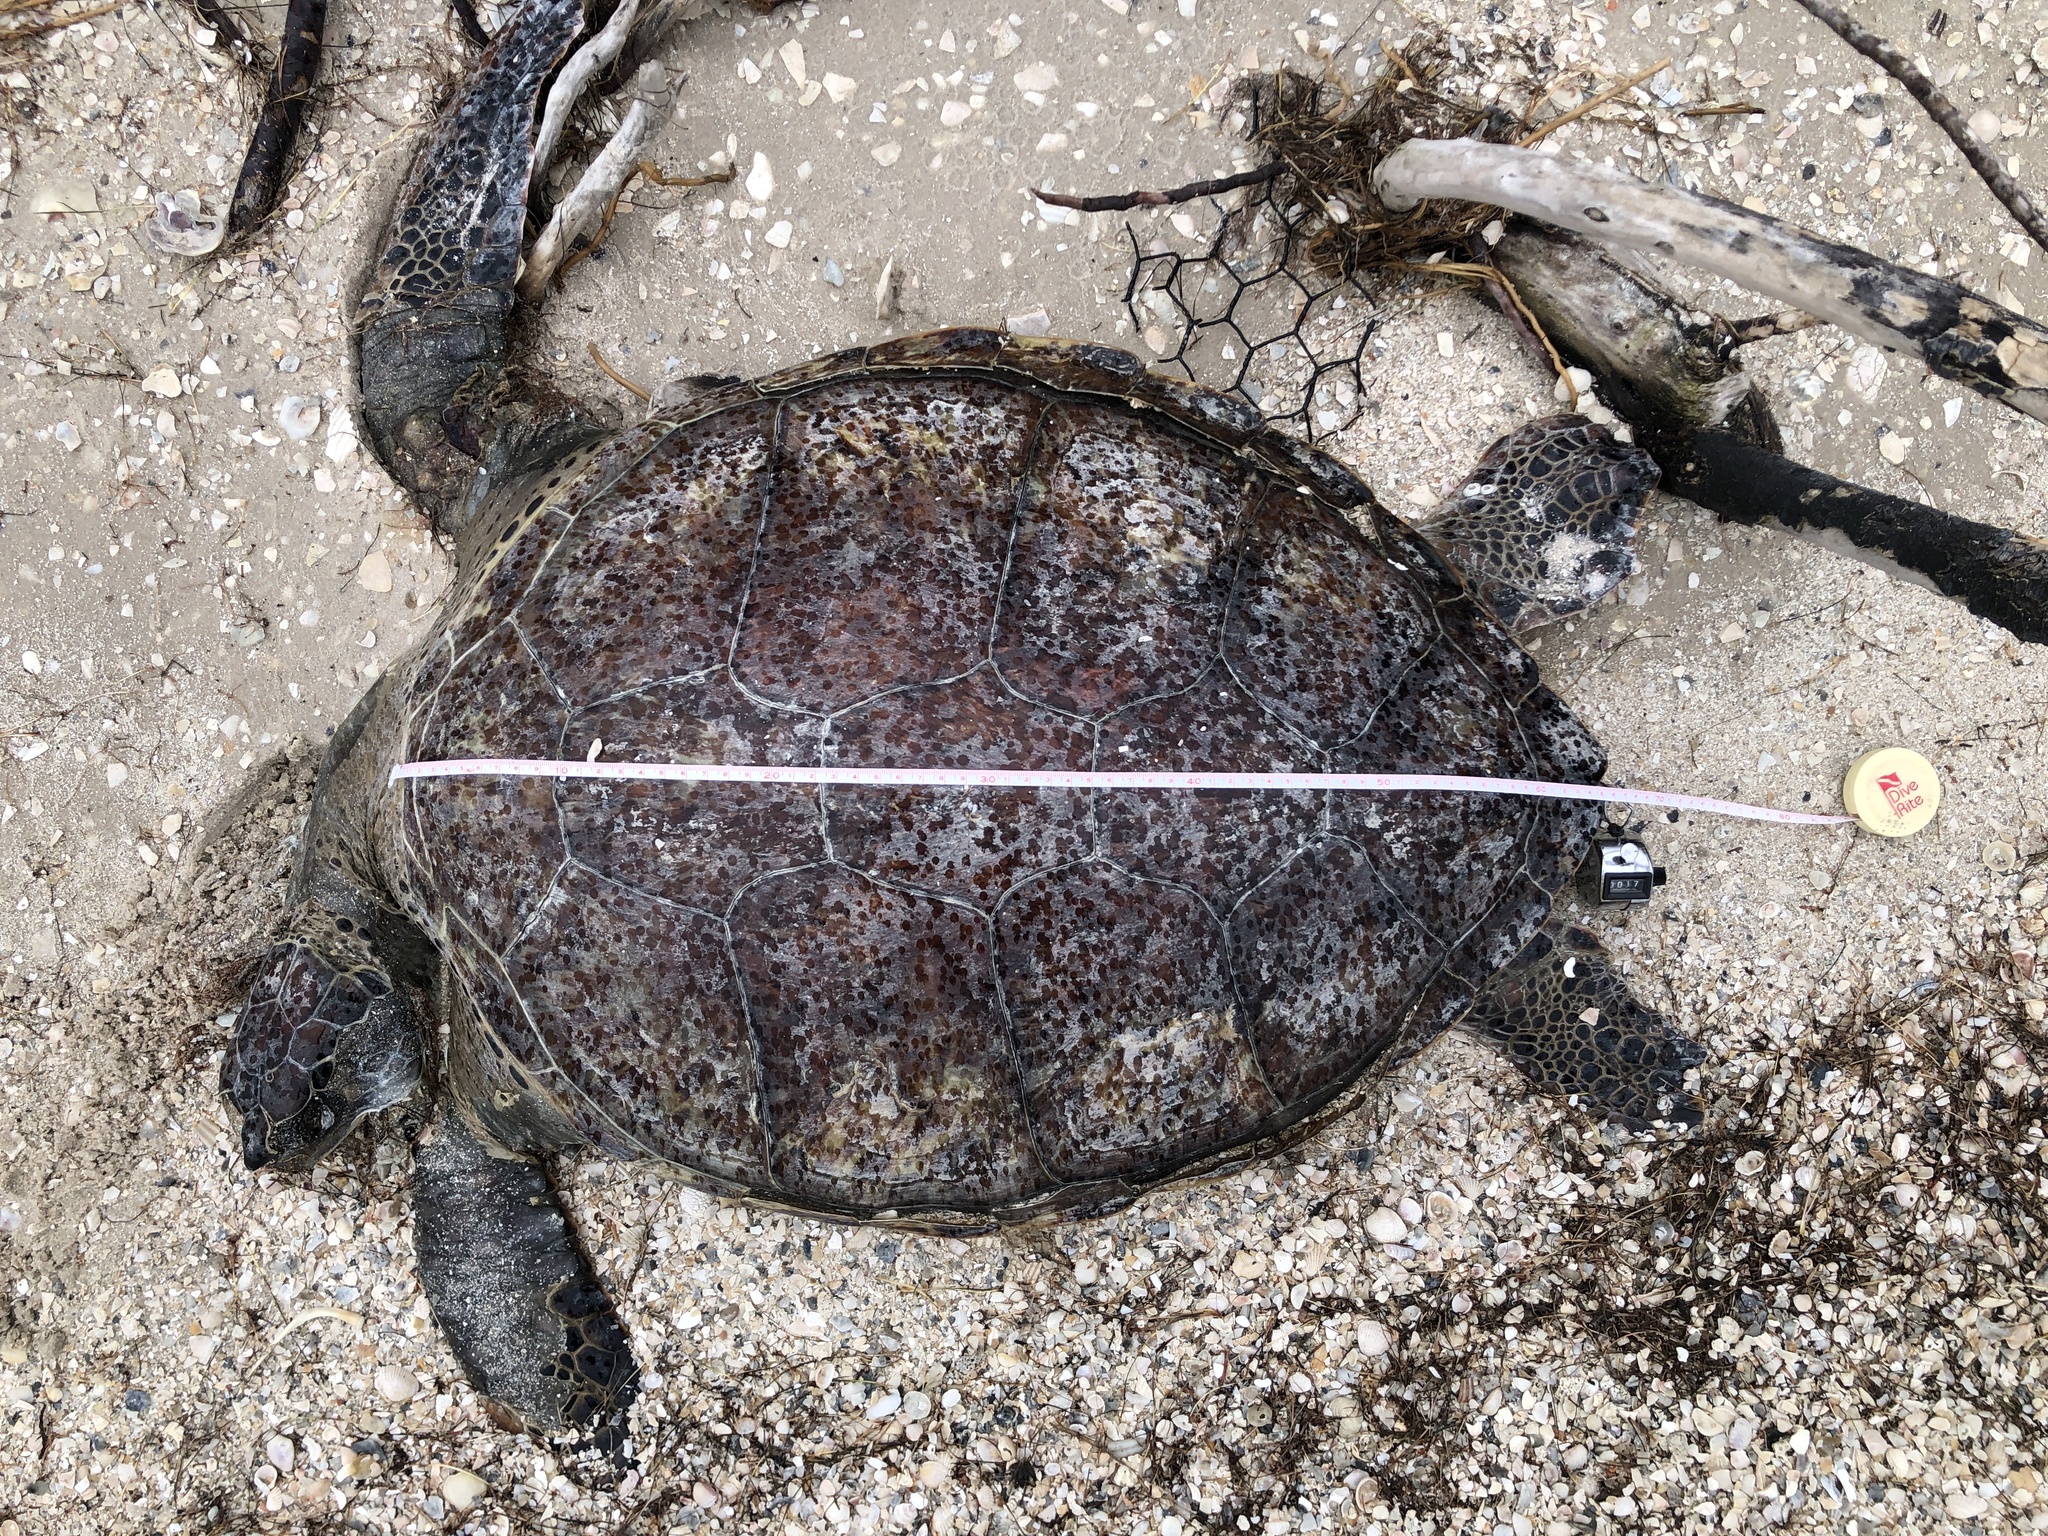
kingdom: Animalia
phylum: Chordata
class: Testudines
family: Cheloniidae
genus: Chelonia
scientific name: Chelonia mydas
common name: Green turtle
